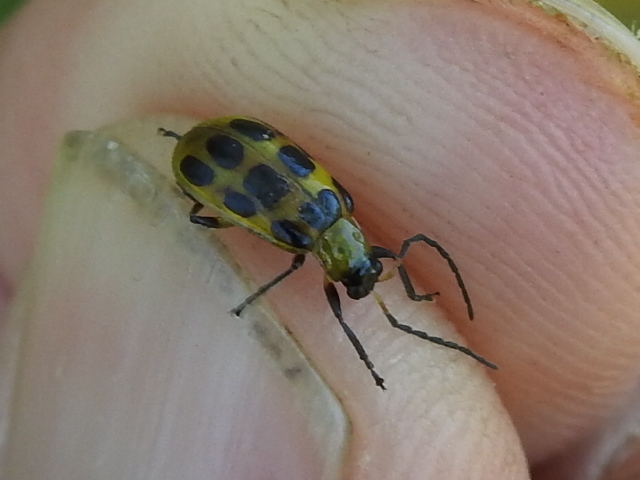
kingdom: Animalia
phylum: Arthropoda
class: Insecta
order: Coleoptera
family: Chrysomelidae
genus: Diabrotica
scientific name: Diabrotica undecimpunctata
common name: Spotted cucumber beetle
